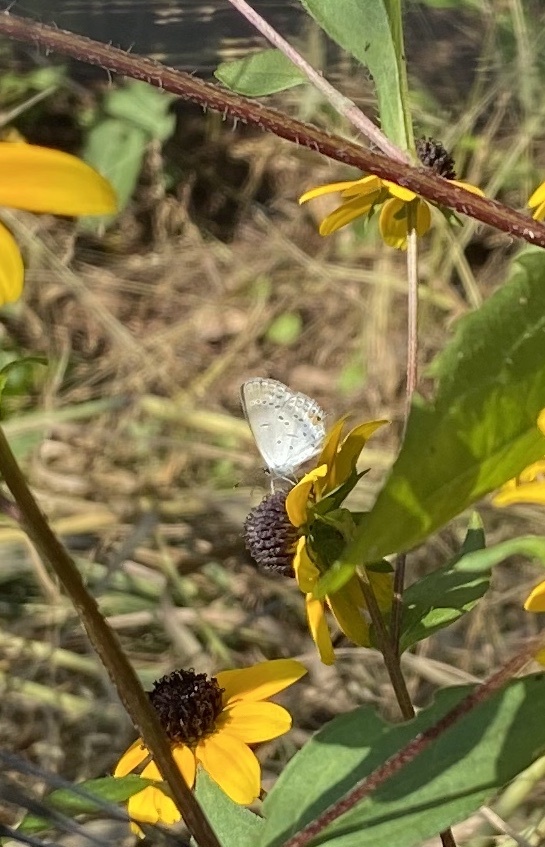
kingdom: Animalia
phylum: Arthropoda
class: Insecta
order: Lepidoptera
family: Lycaenidae
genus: Elkalyce
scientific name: Elkalyce comyntas
